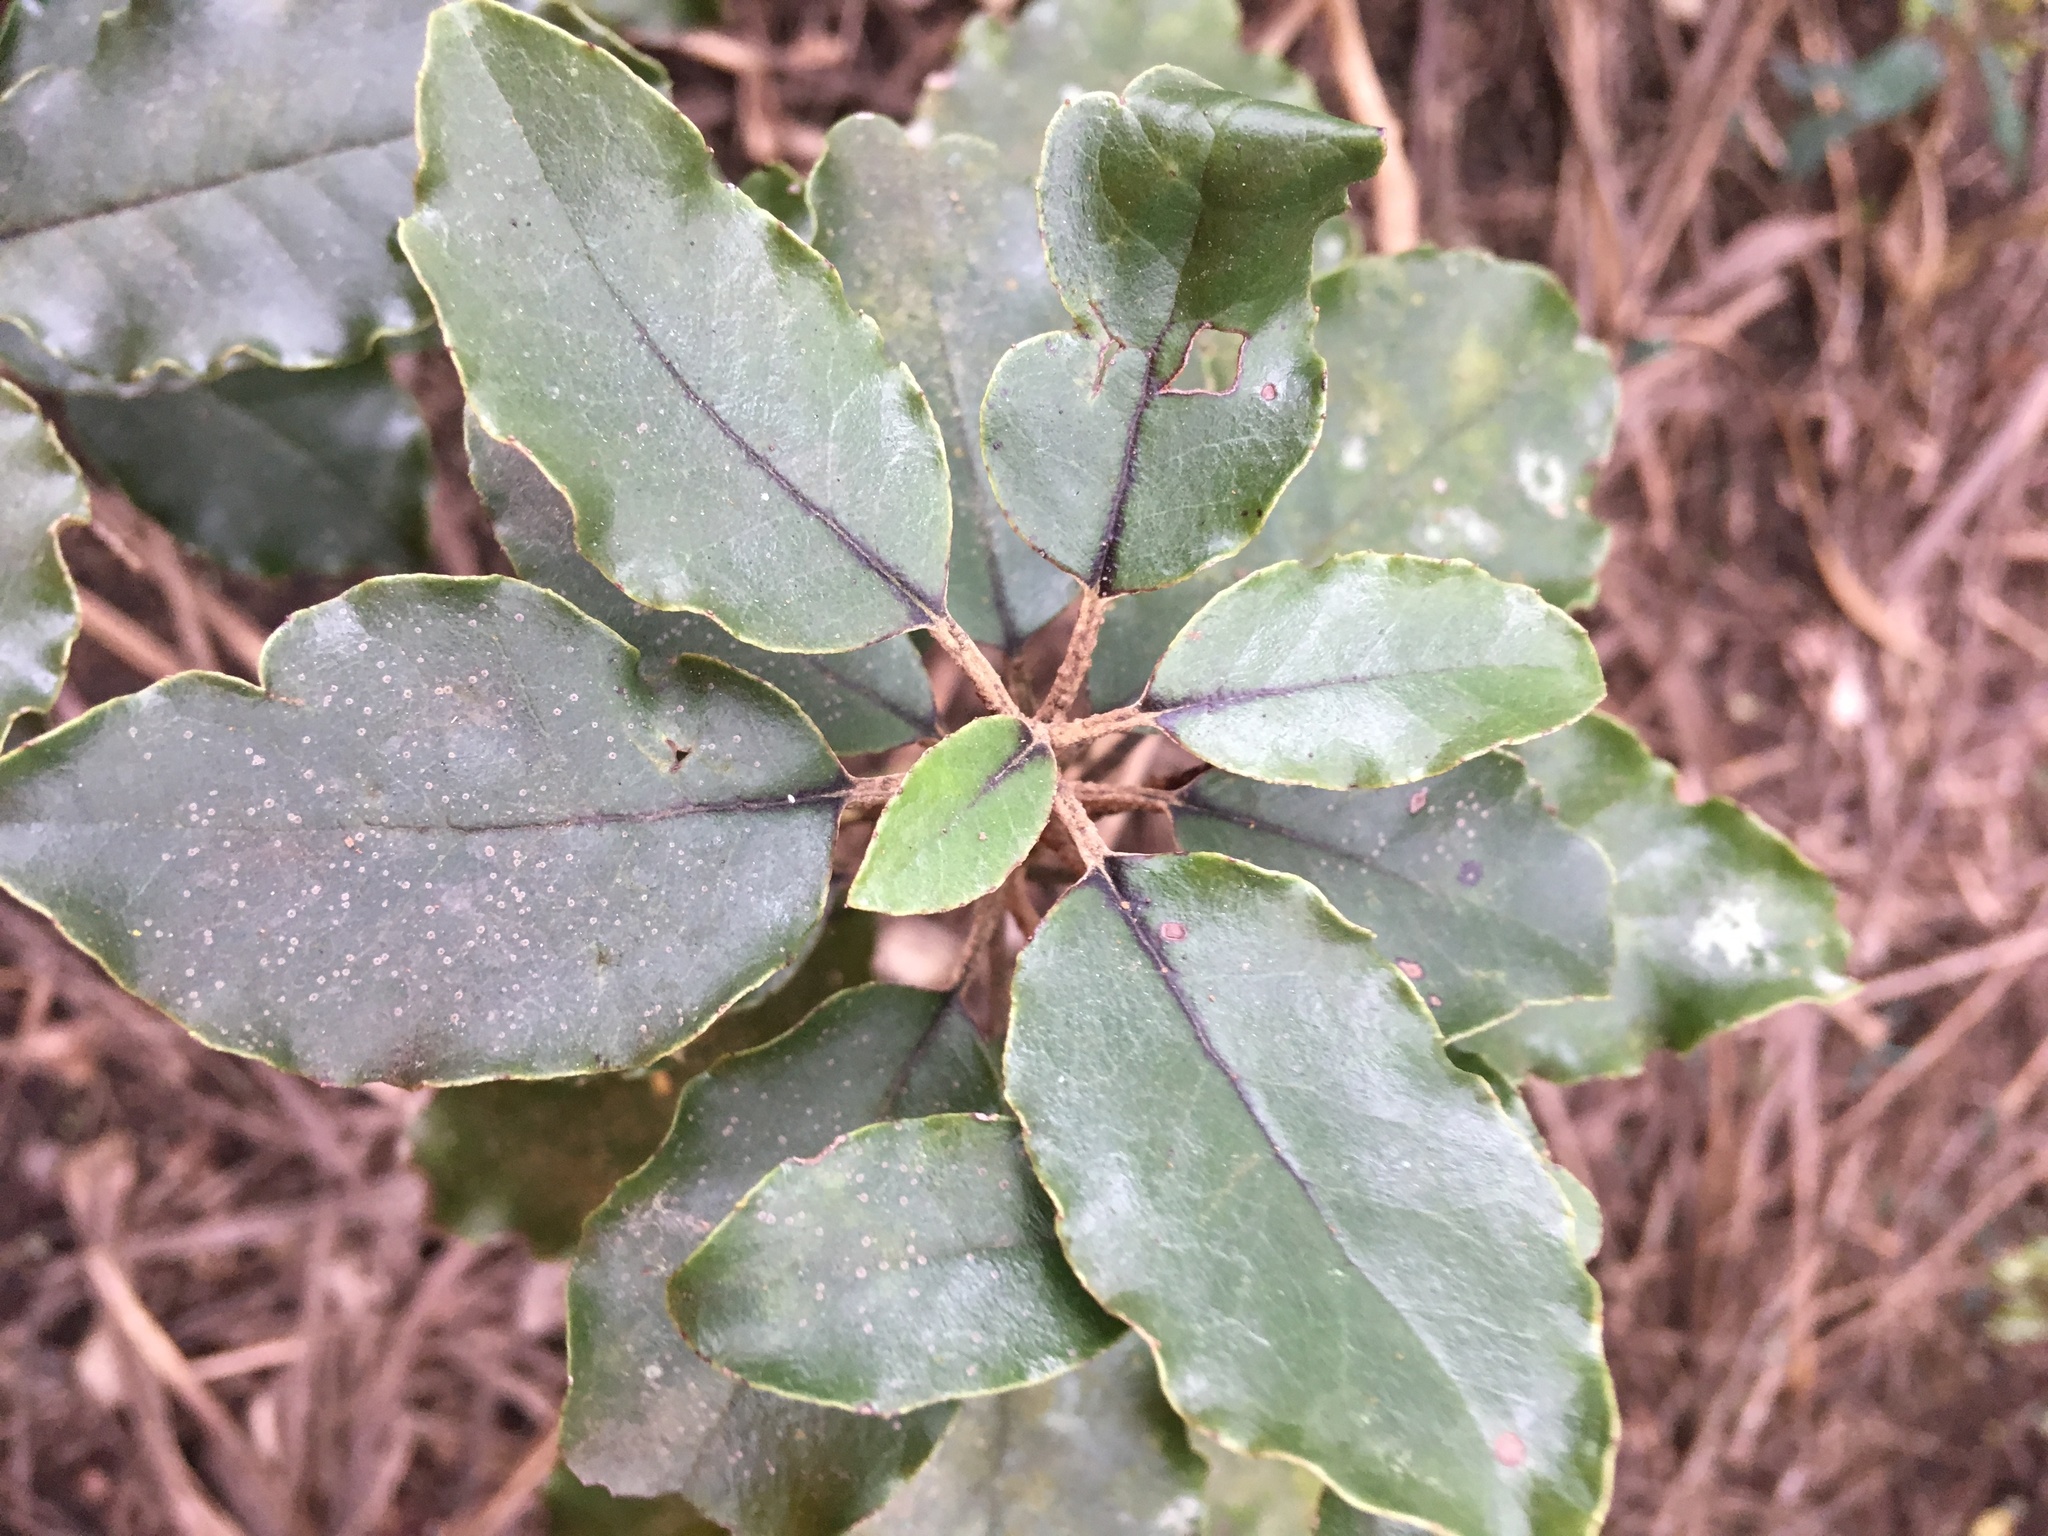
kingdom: Plantae
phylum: Tracheophyta
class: Magnoliopsida
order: Asterales
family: Asteraceae
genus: Olearia
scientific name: Olearia furfuracea
